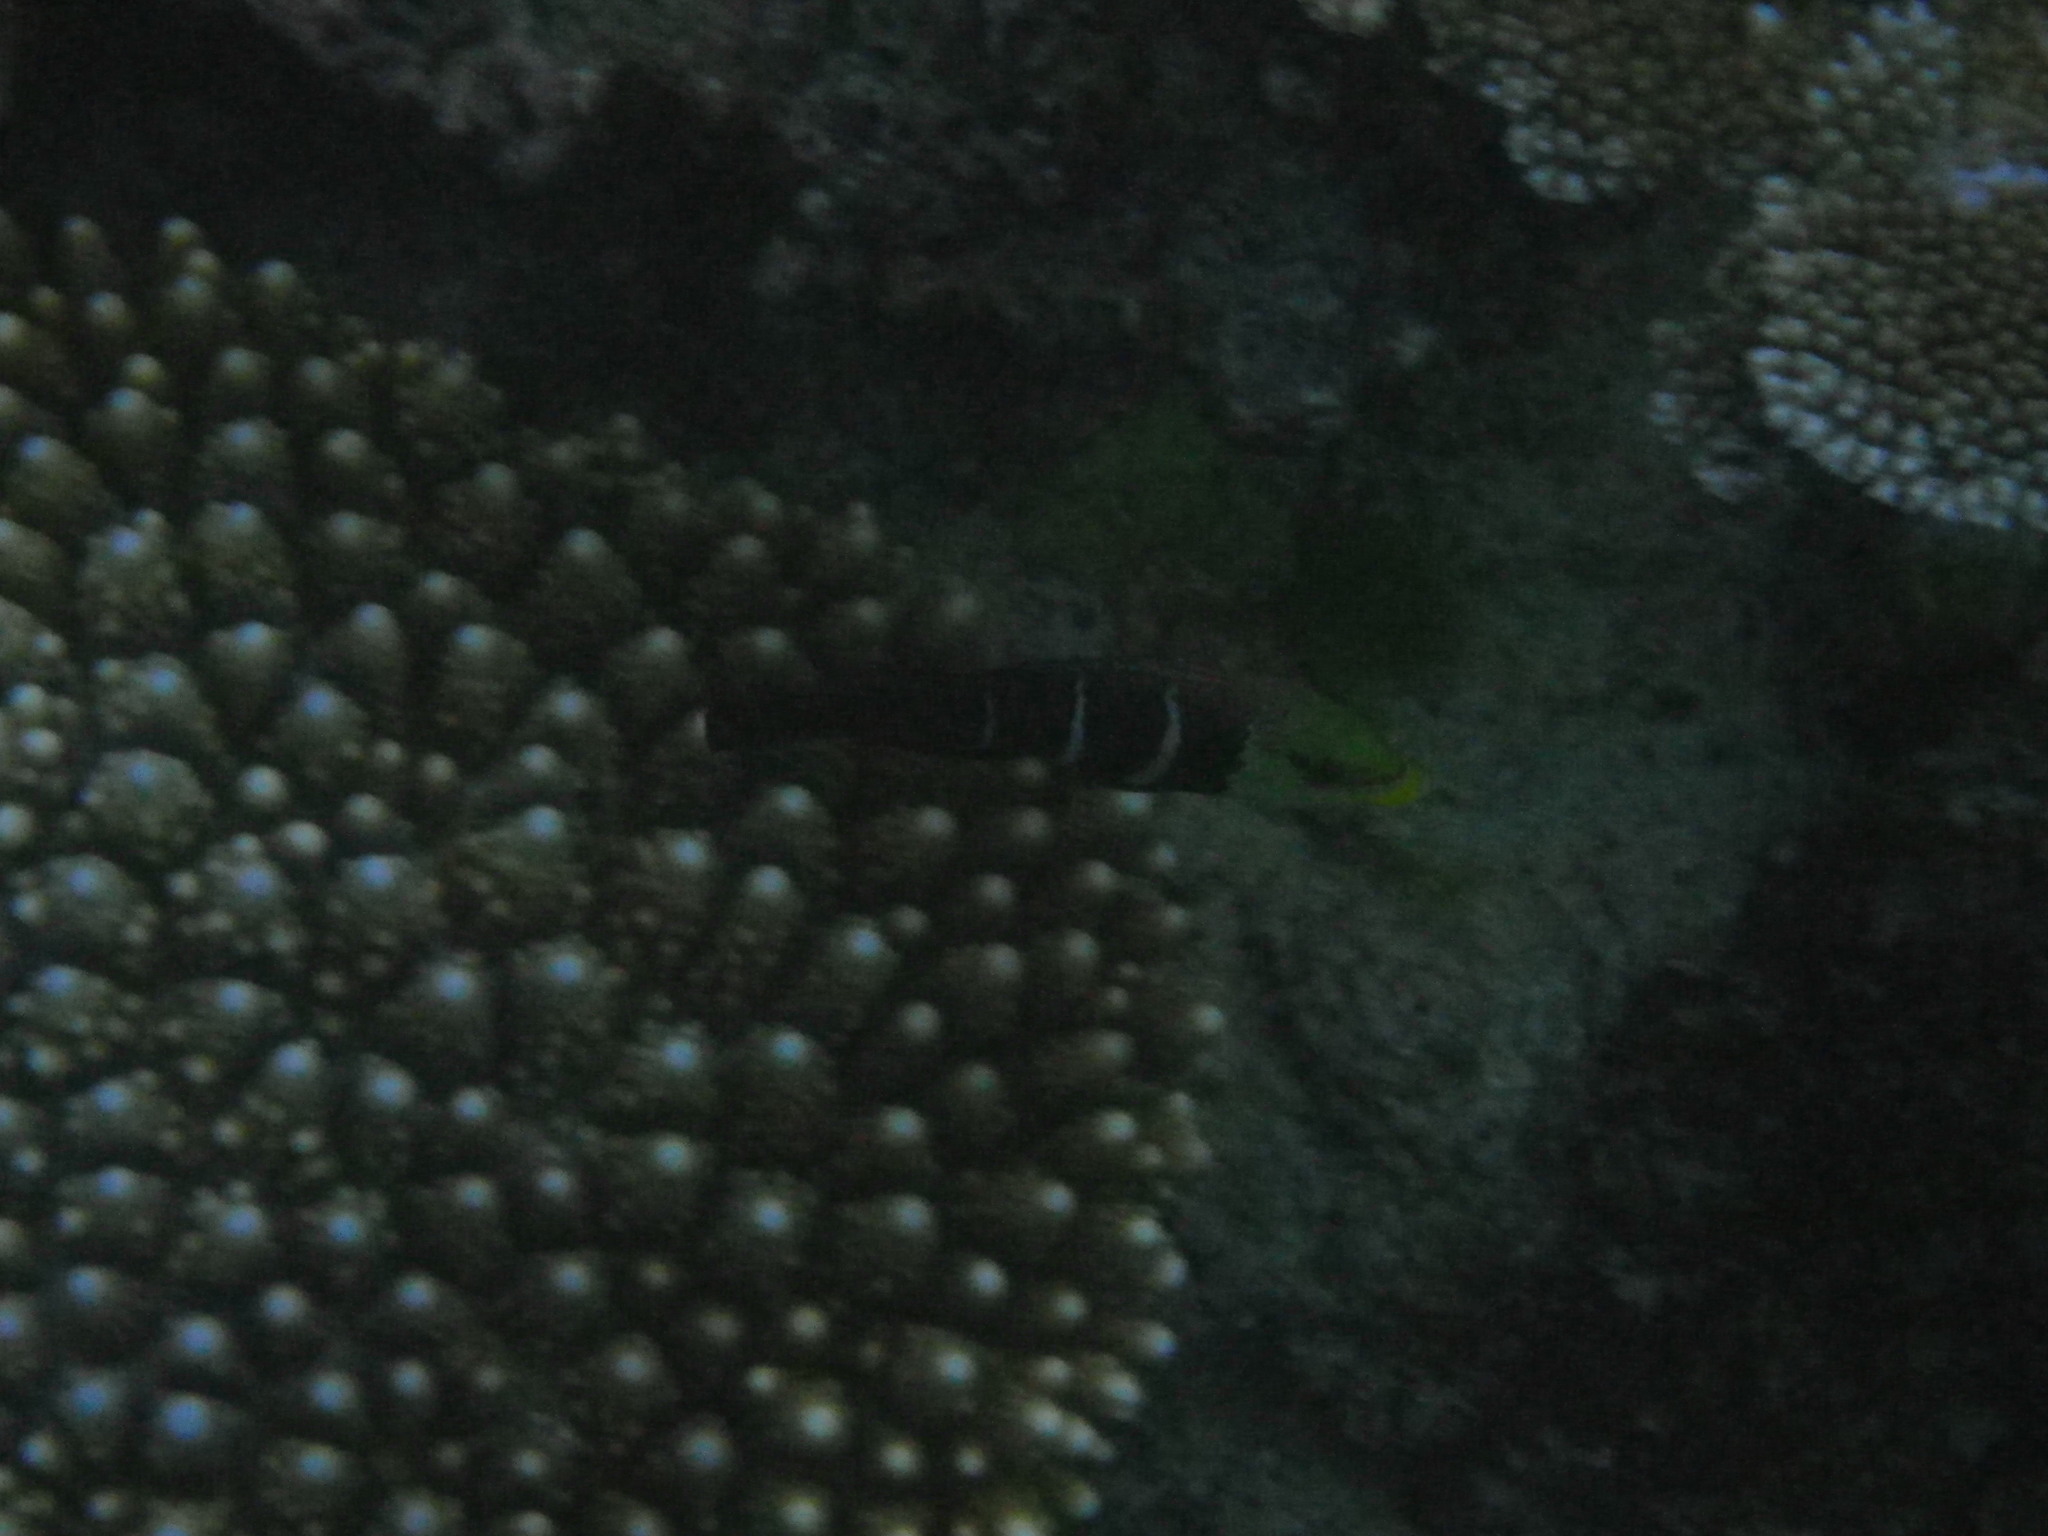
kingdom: Animalia
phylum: Chordata
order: Perciformes
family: Labridae
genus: Hemigymnus
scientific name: Hemigymnus fasciatus
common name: Barred thicklip
